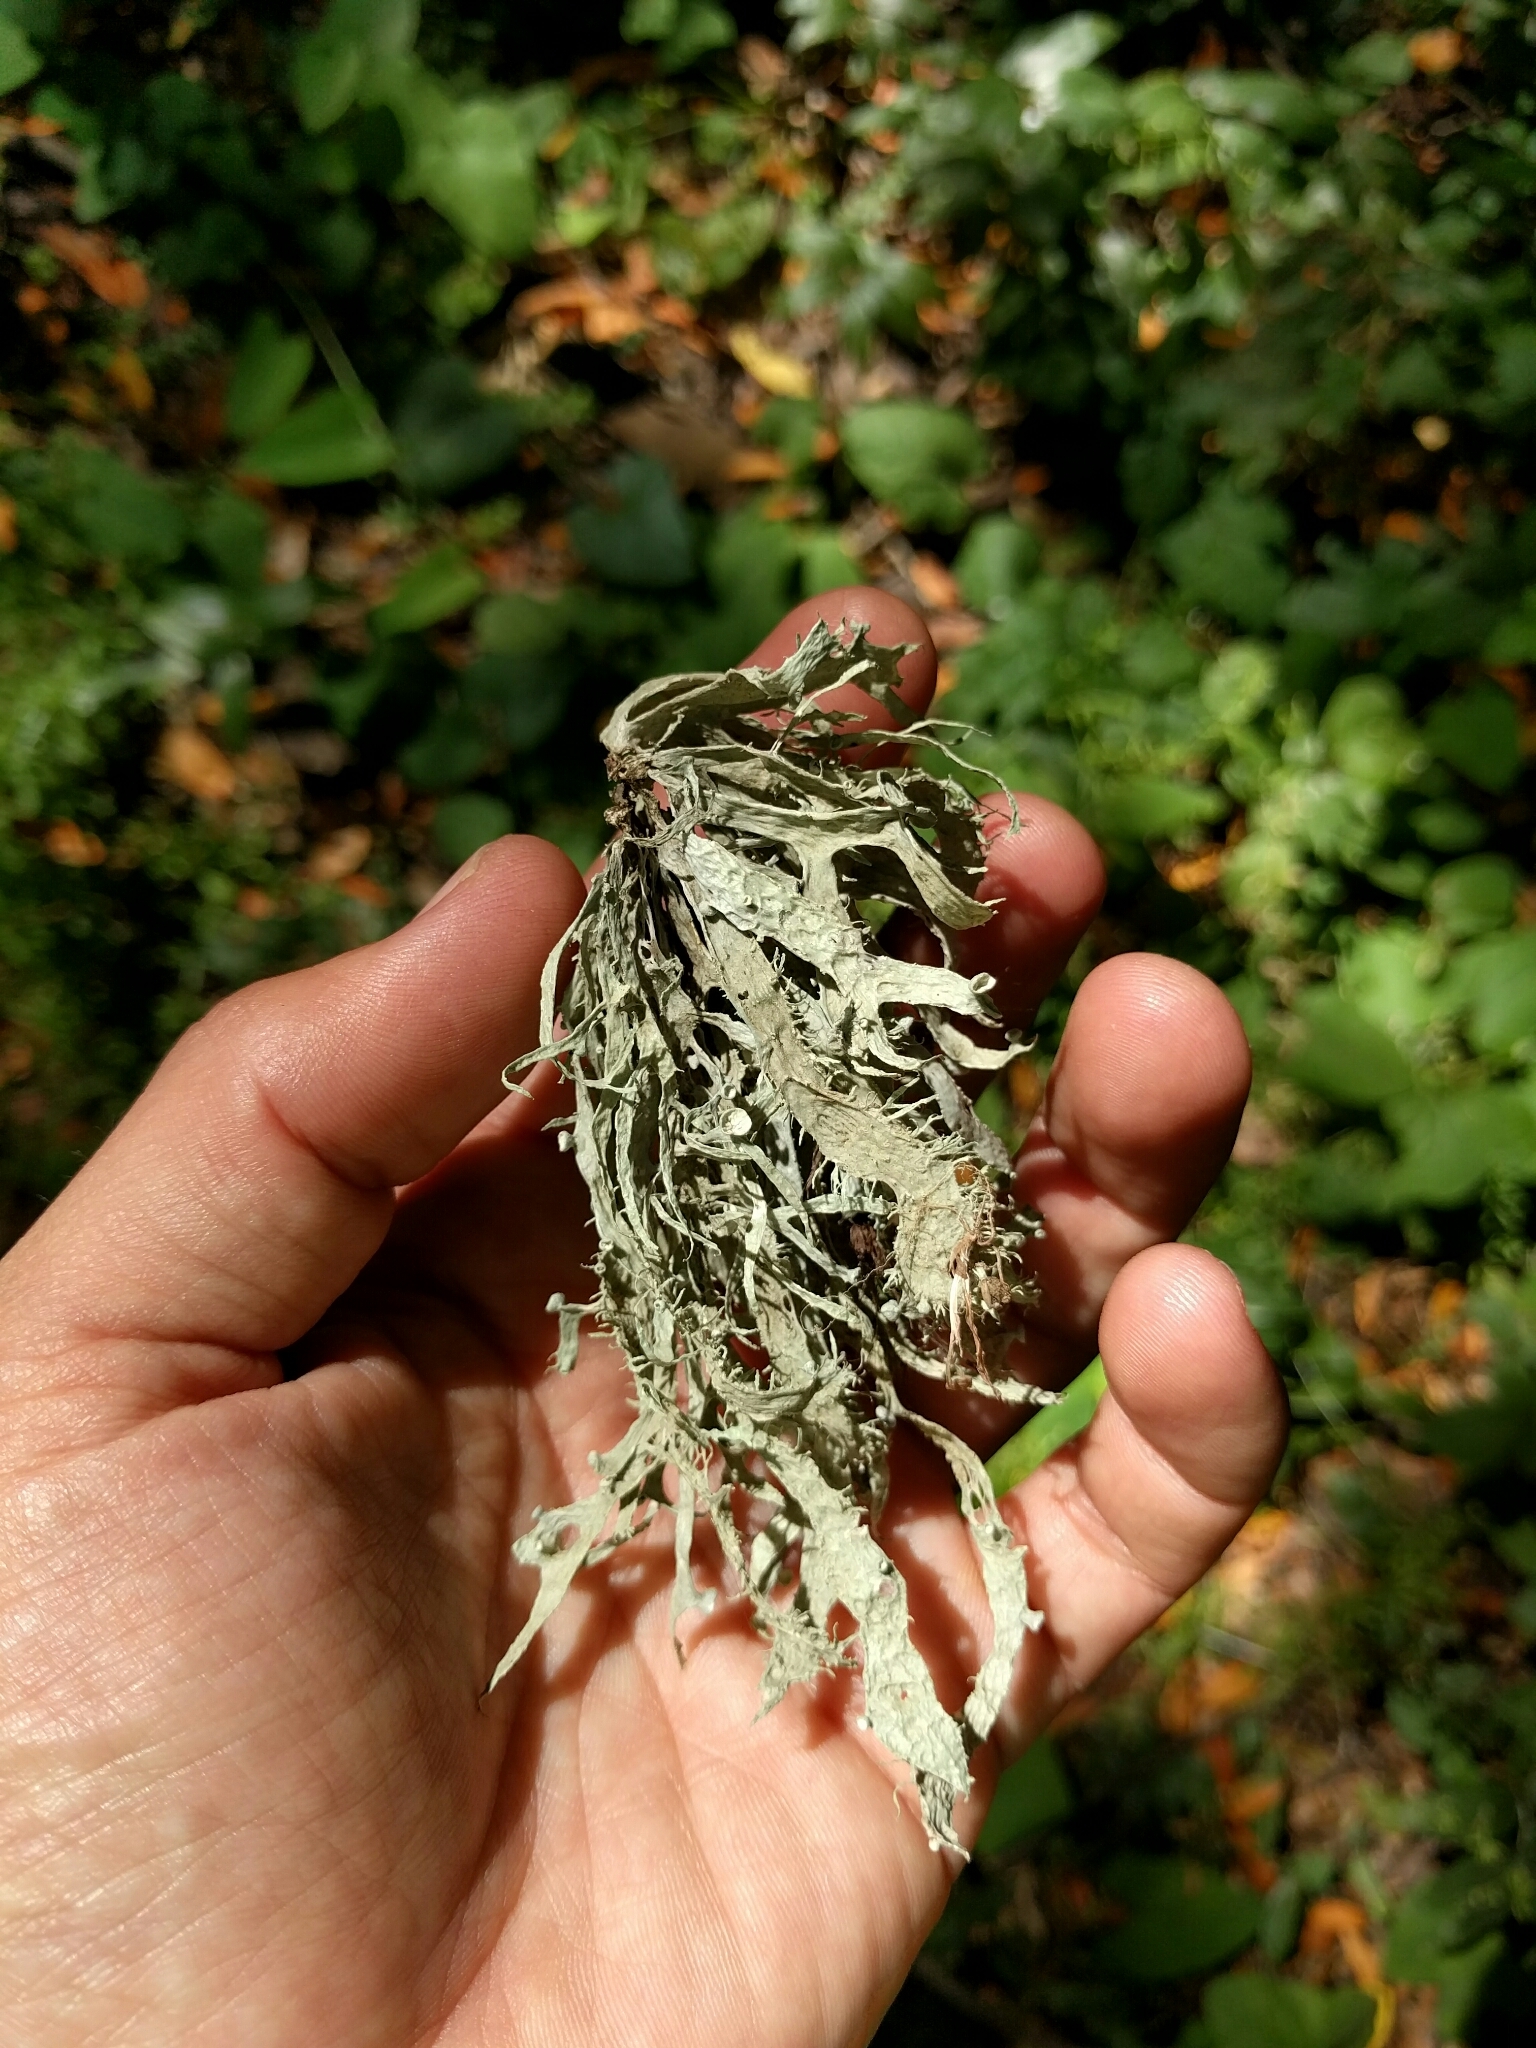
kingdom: Fungi
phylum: Ascomycota
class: Lecanoromycetes
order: Lecanorales
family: Ramalinaceae
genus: Ramalina
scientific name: Ramalina leptocarpha
